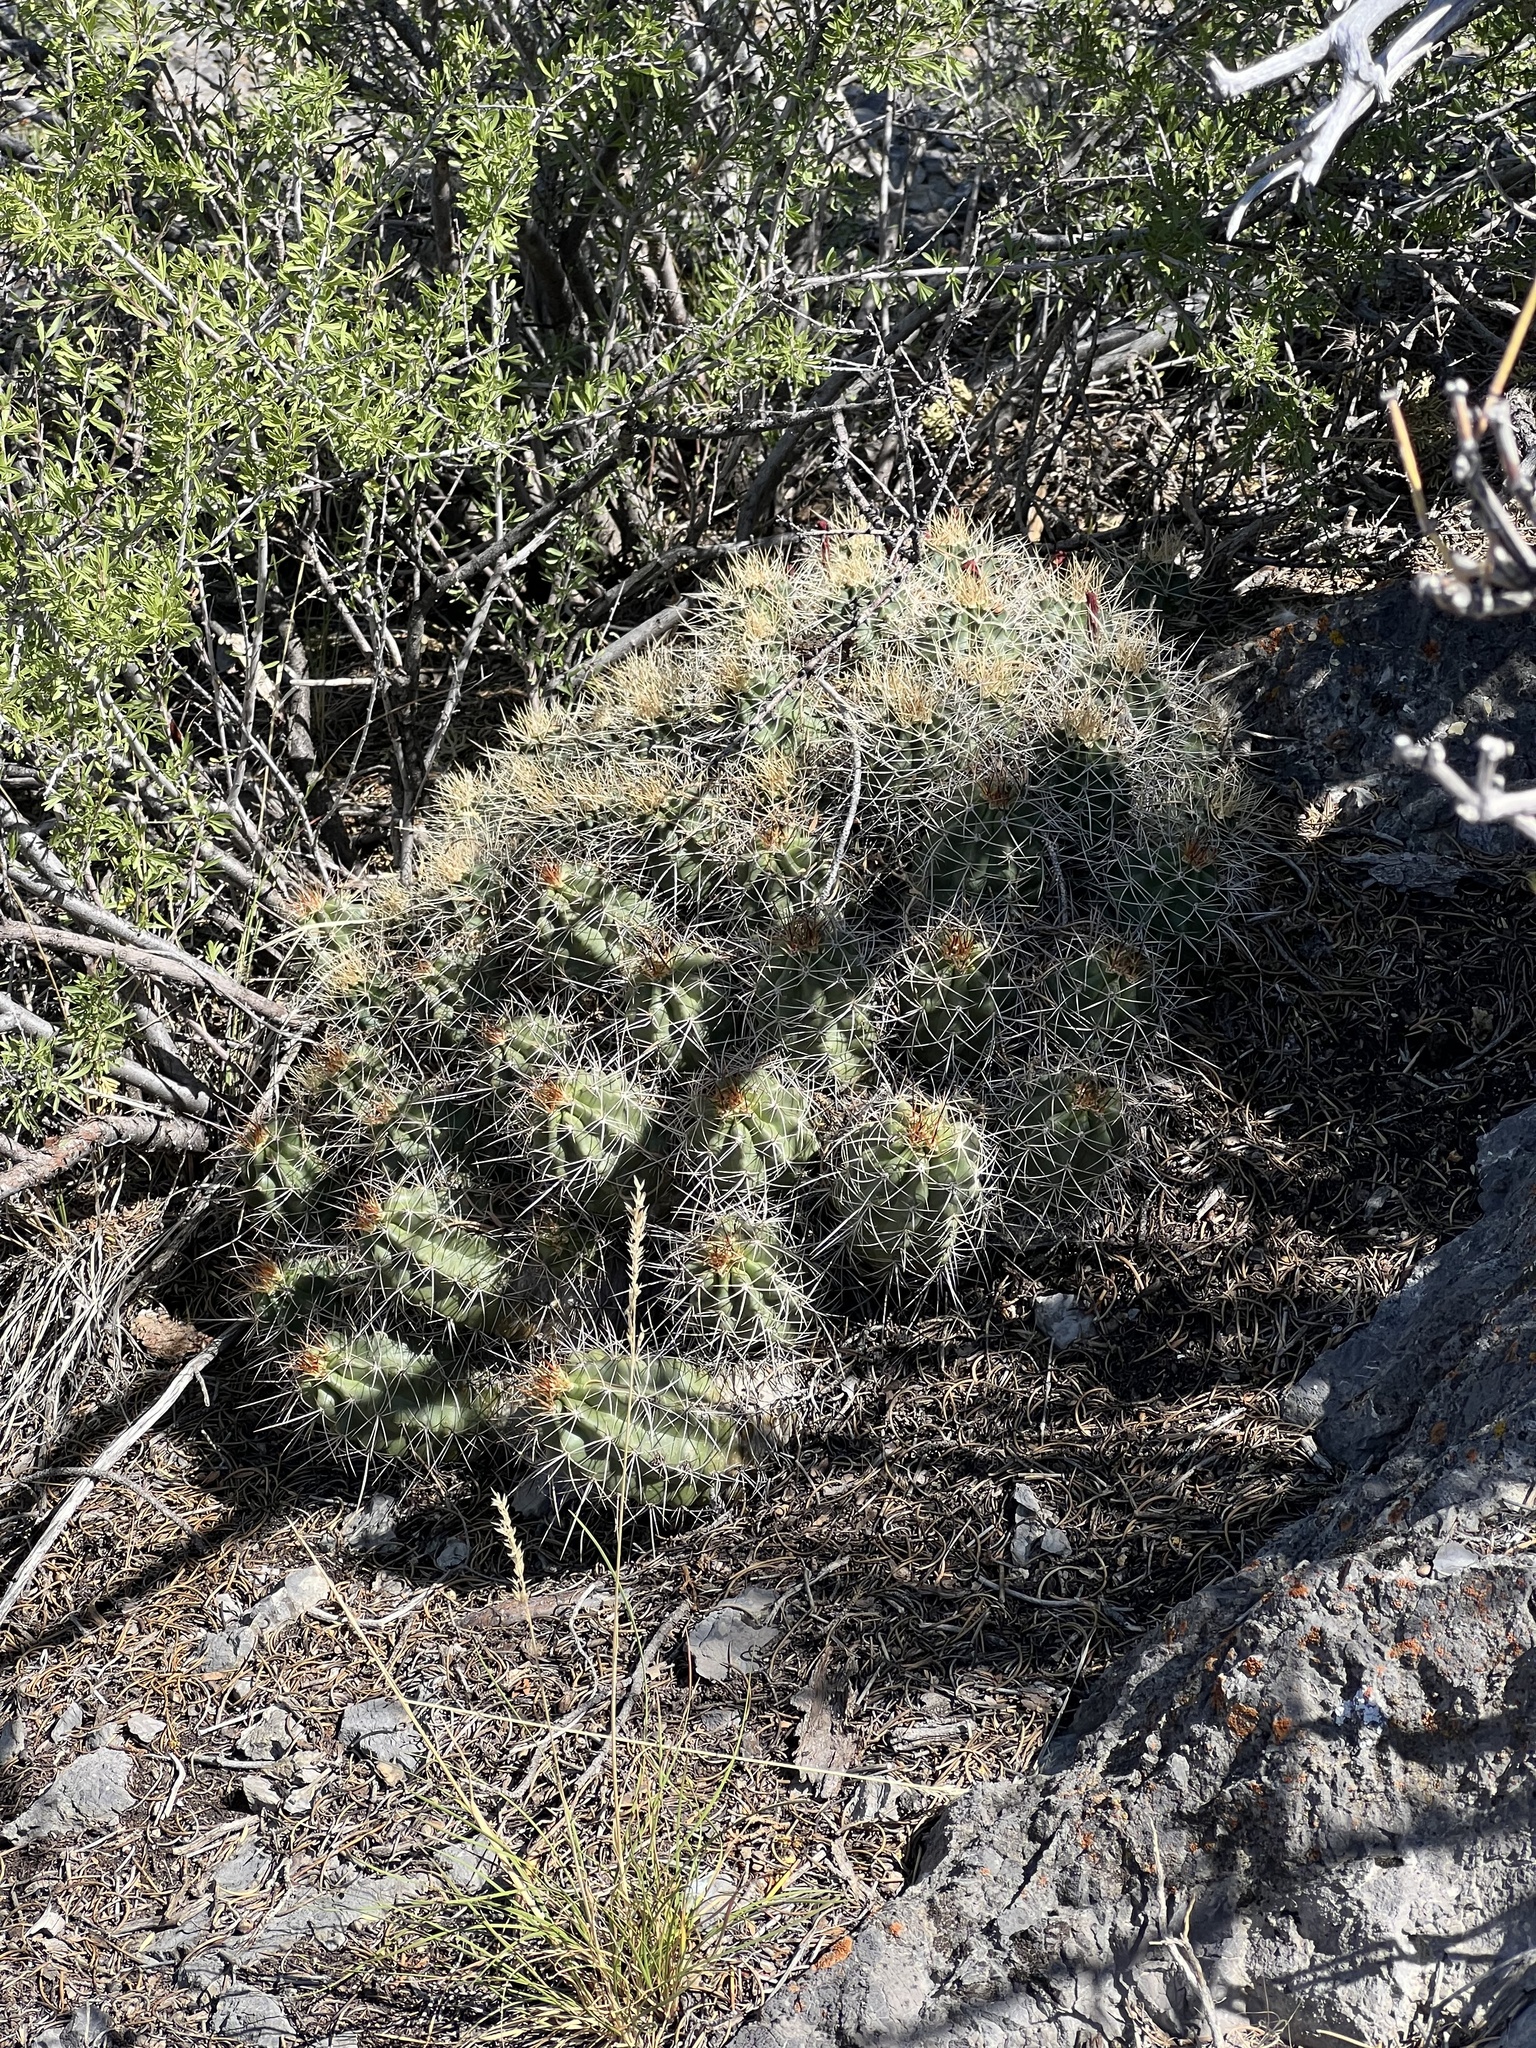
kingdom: Plantae
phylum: Tracheophyta
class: Magnoliopsida
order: Caryophyllales
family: Cactaceae
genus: Echinocereus
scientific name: Echinocereus triglochidiatus
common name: Claretcup hedgehog
